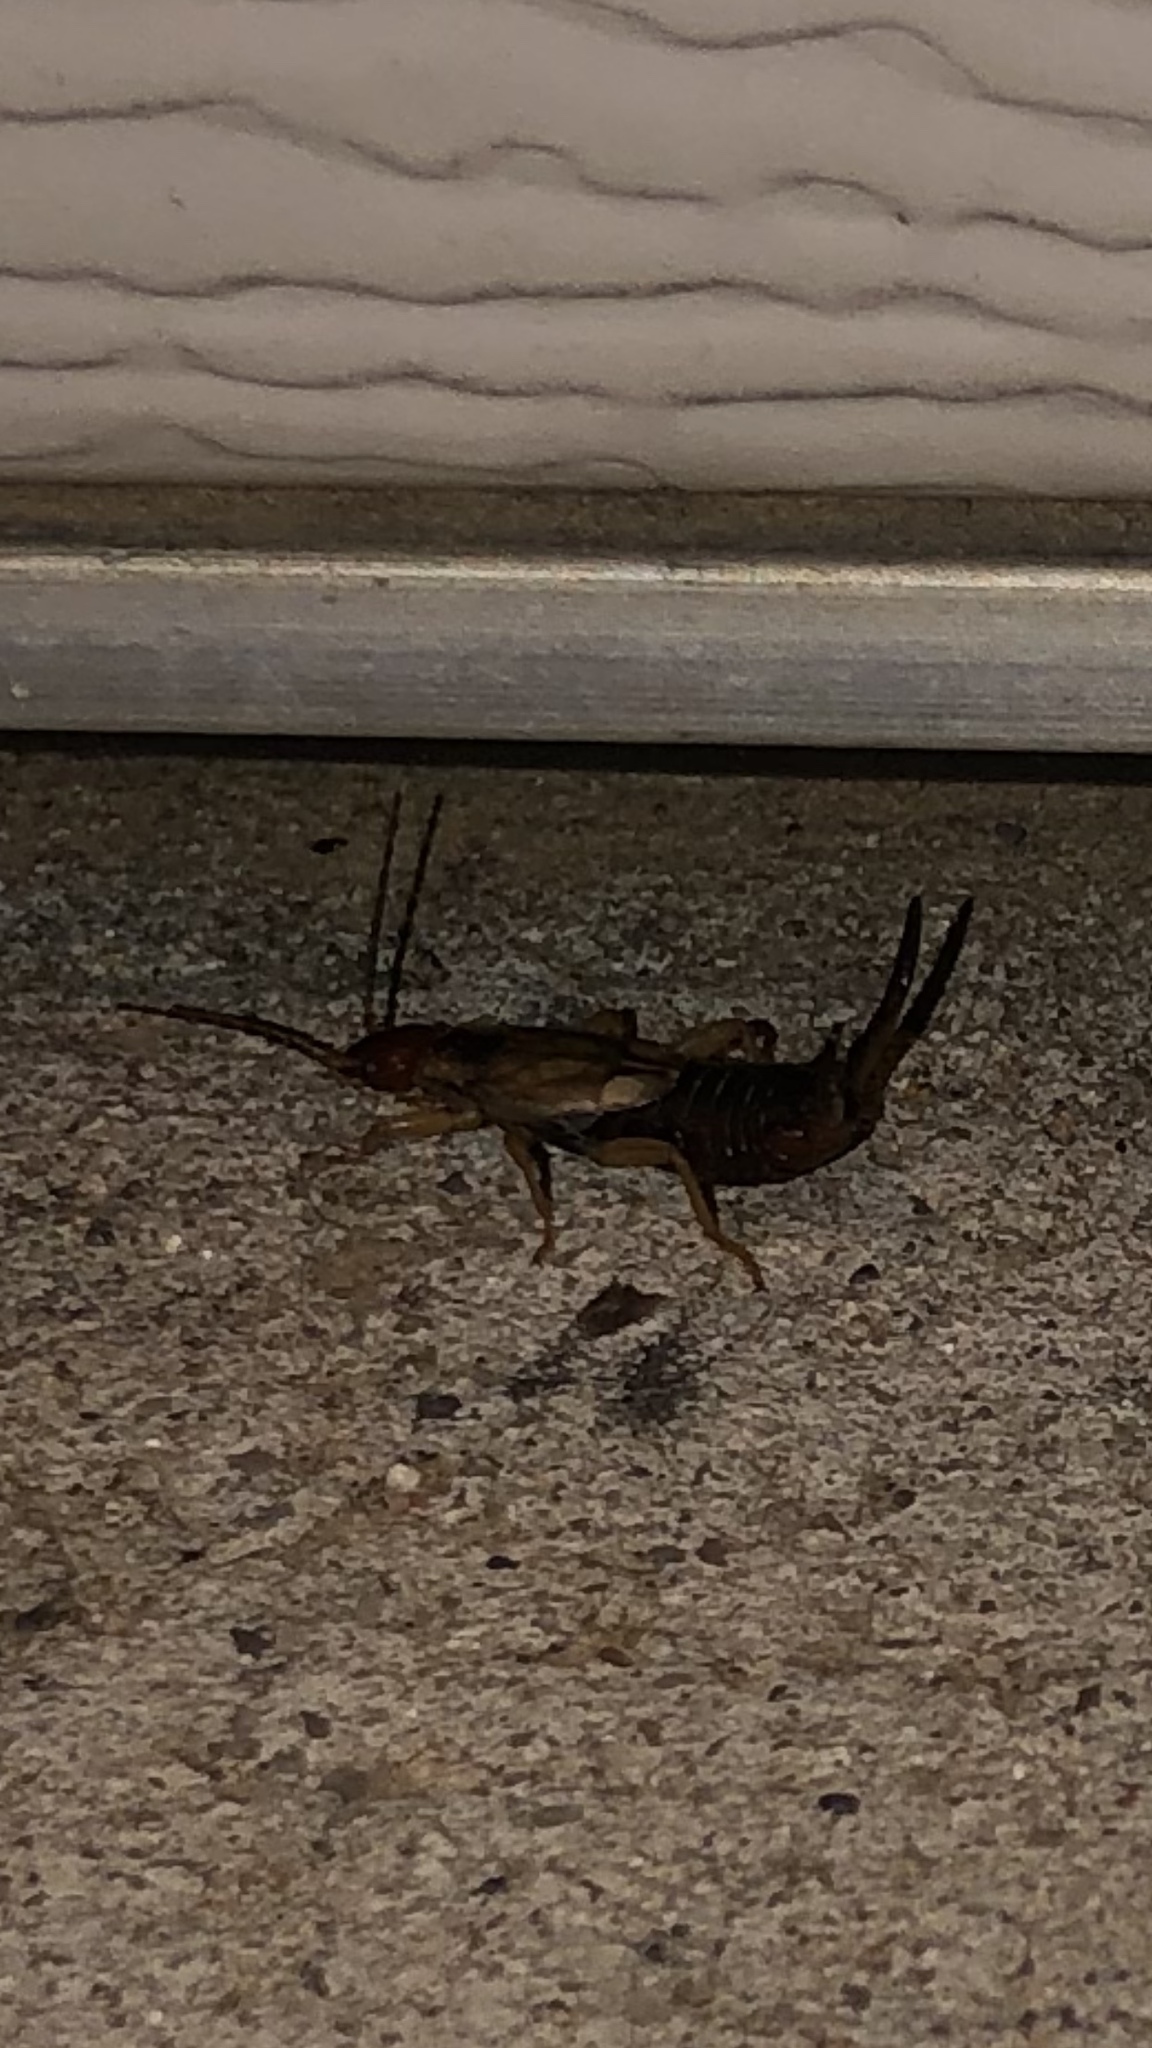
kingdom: Animalia
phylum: Arthropoda
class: Insecta
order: Dermaptera
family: Forficulidae
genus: Forficula
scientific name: Forficula
